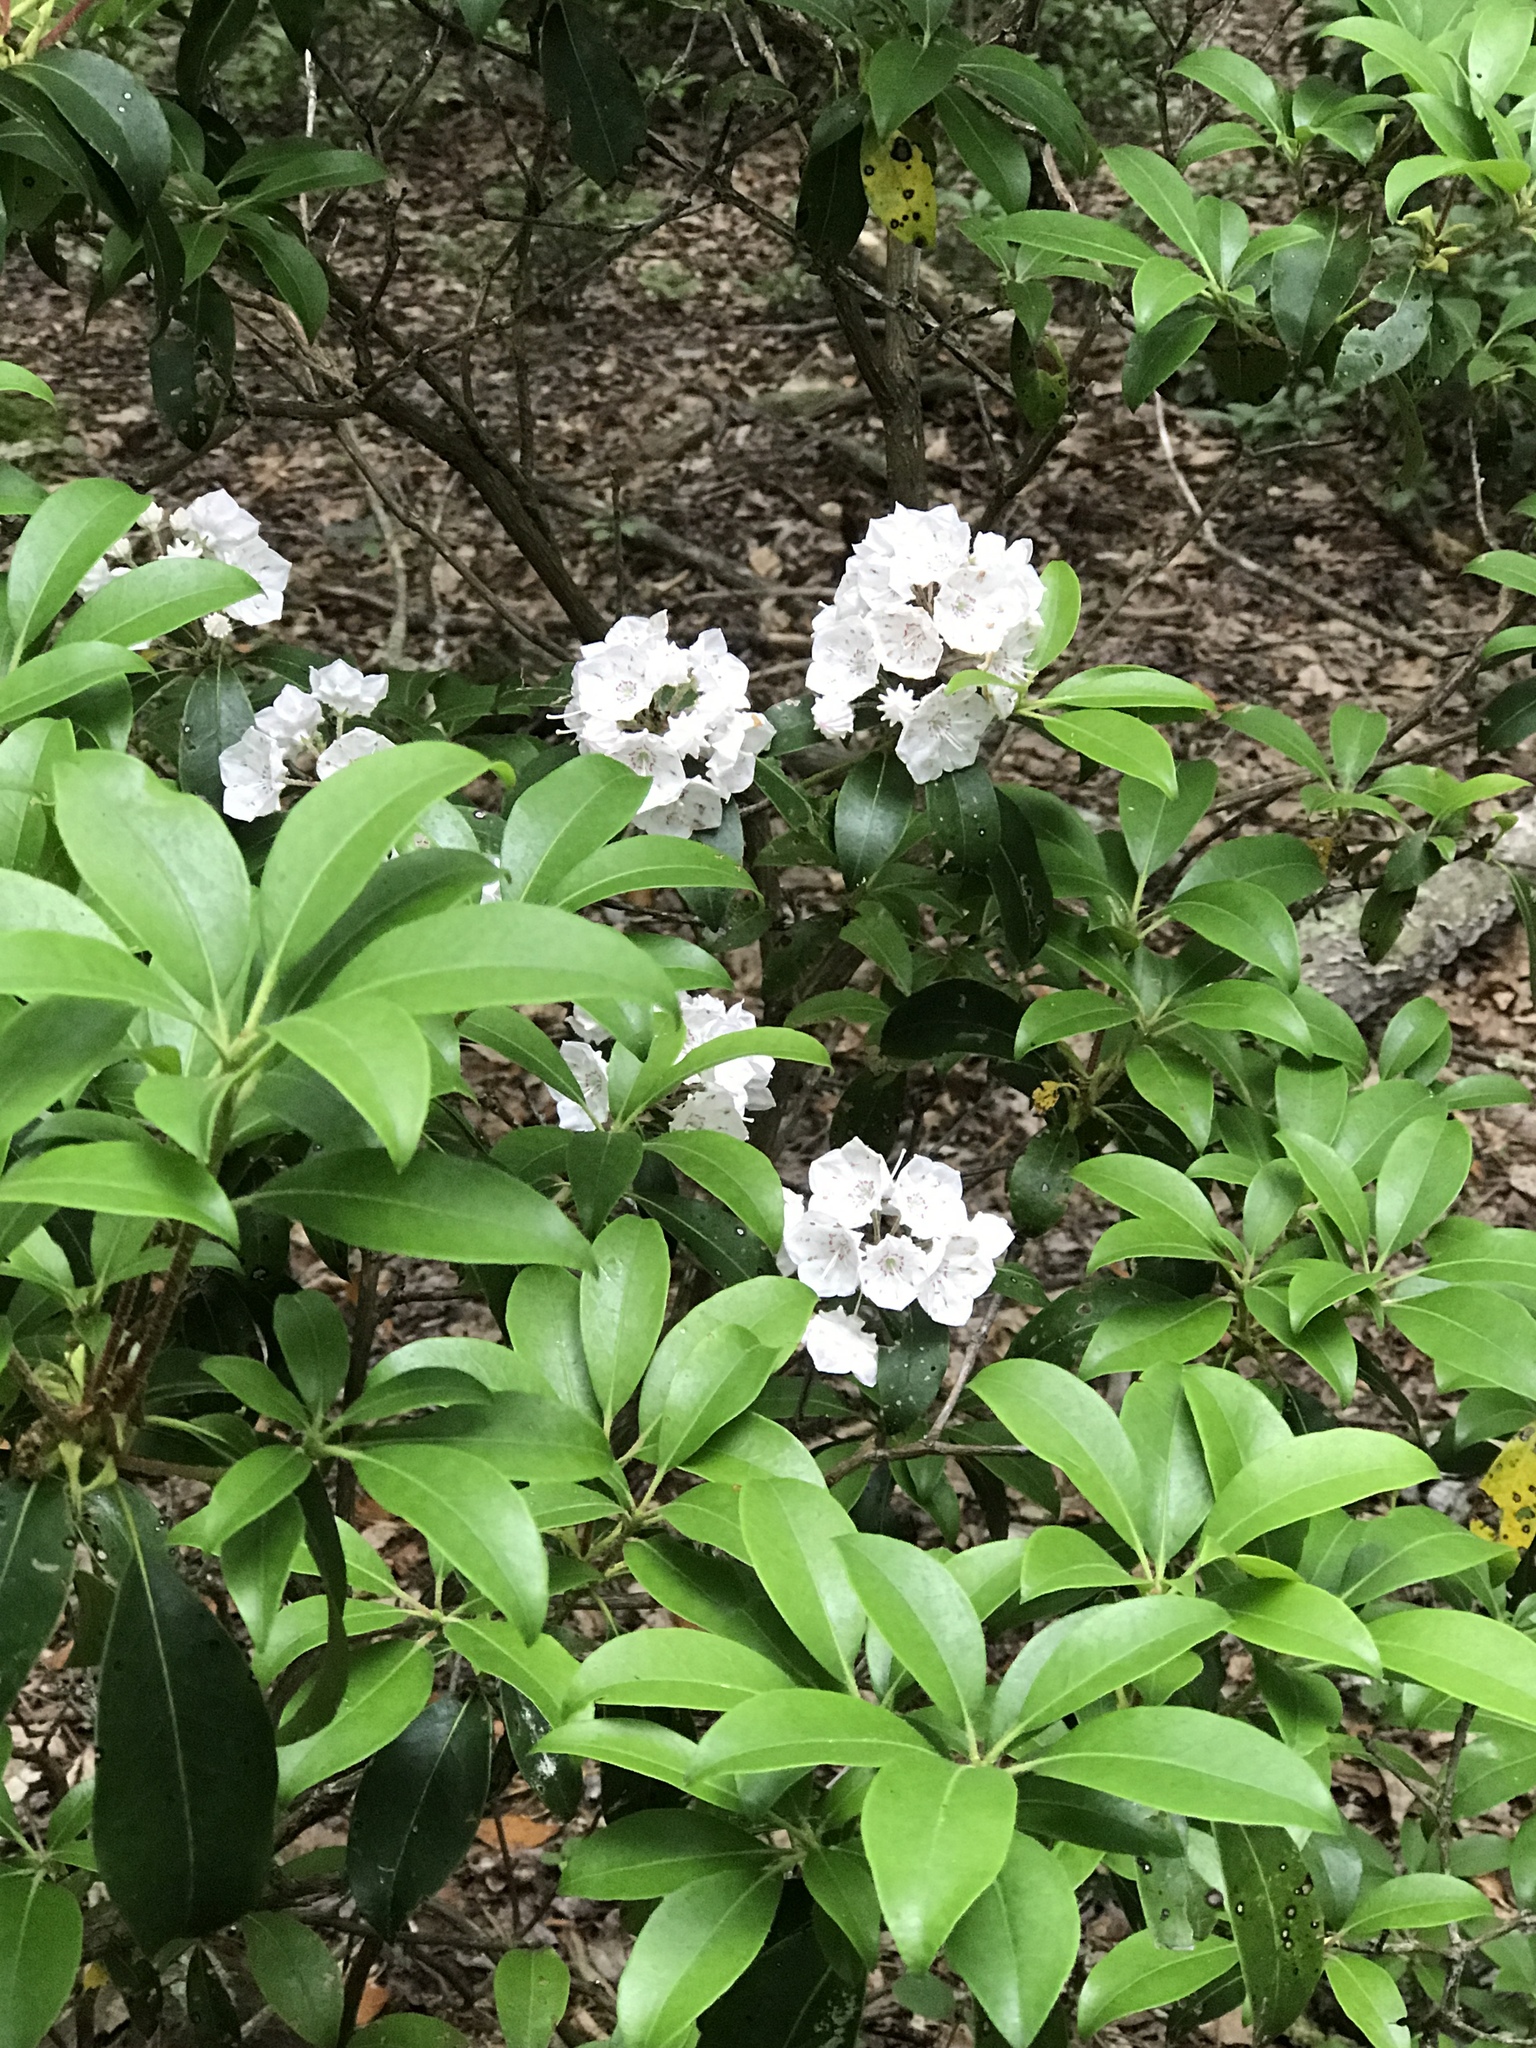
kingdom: Plantae
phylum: Tracheophyta
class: Magnoliopsida
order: Ericales
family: Ericaceae
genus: Kalmia
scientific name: Kalmia latifolia
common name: Mountain-laurel
